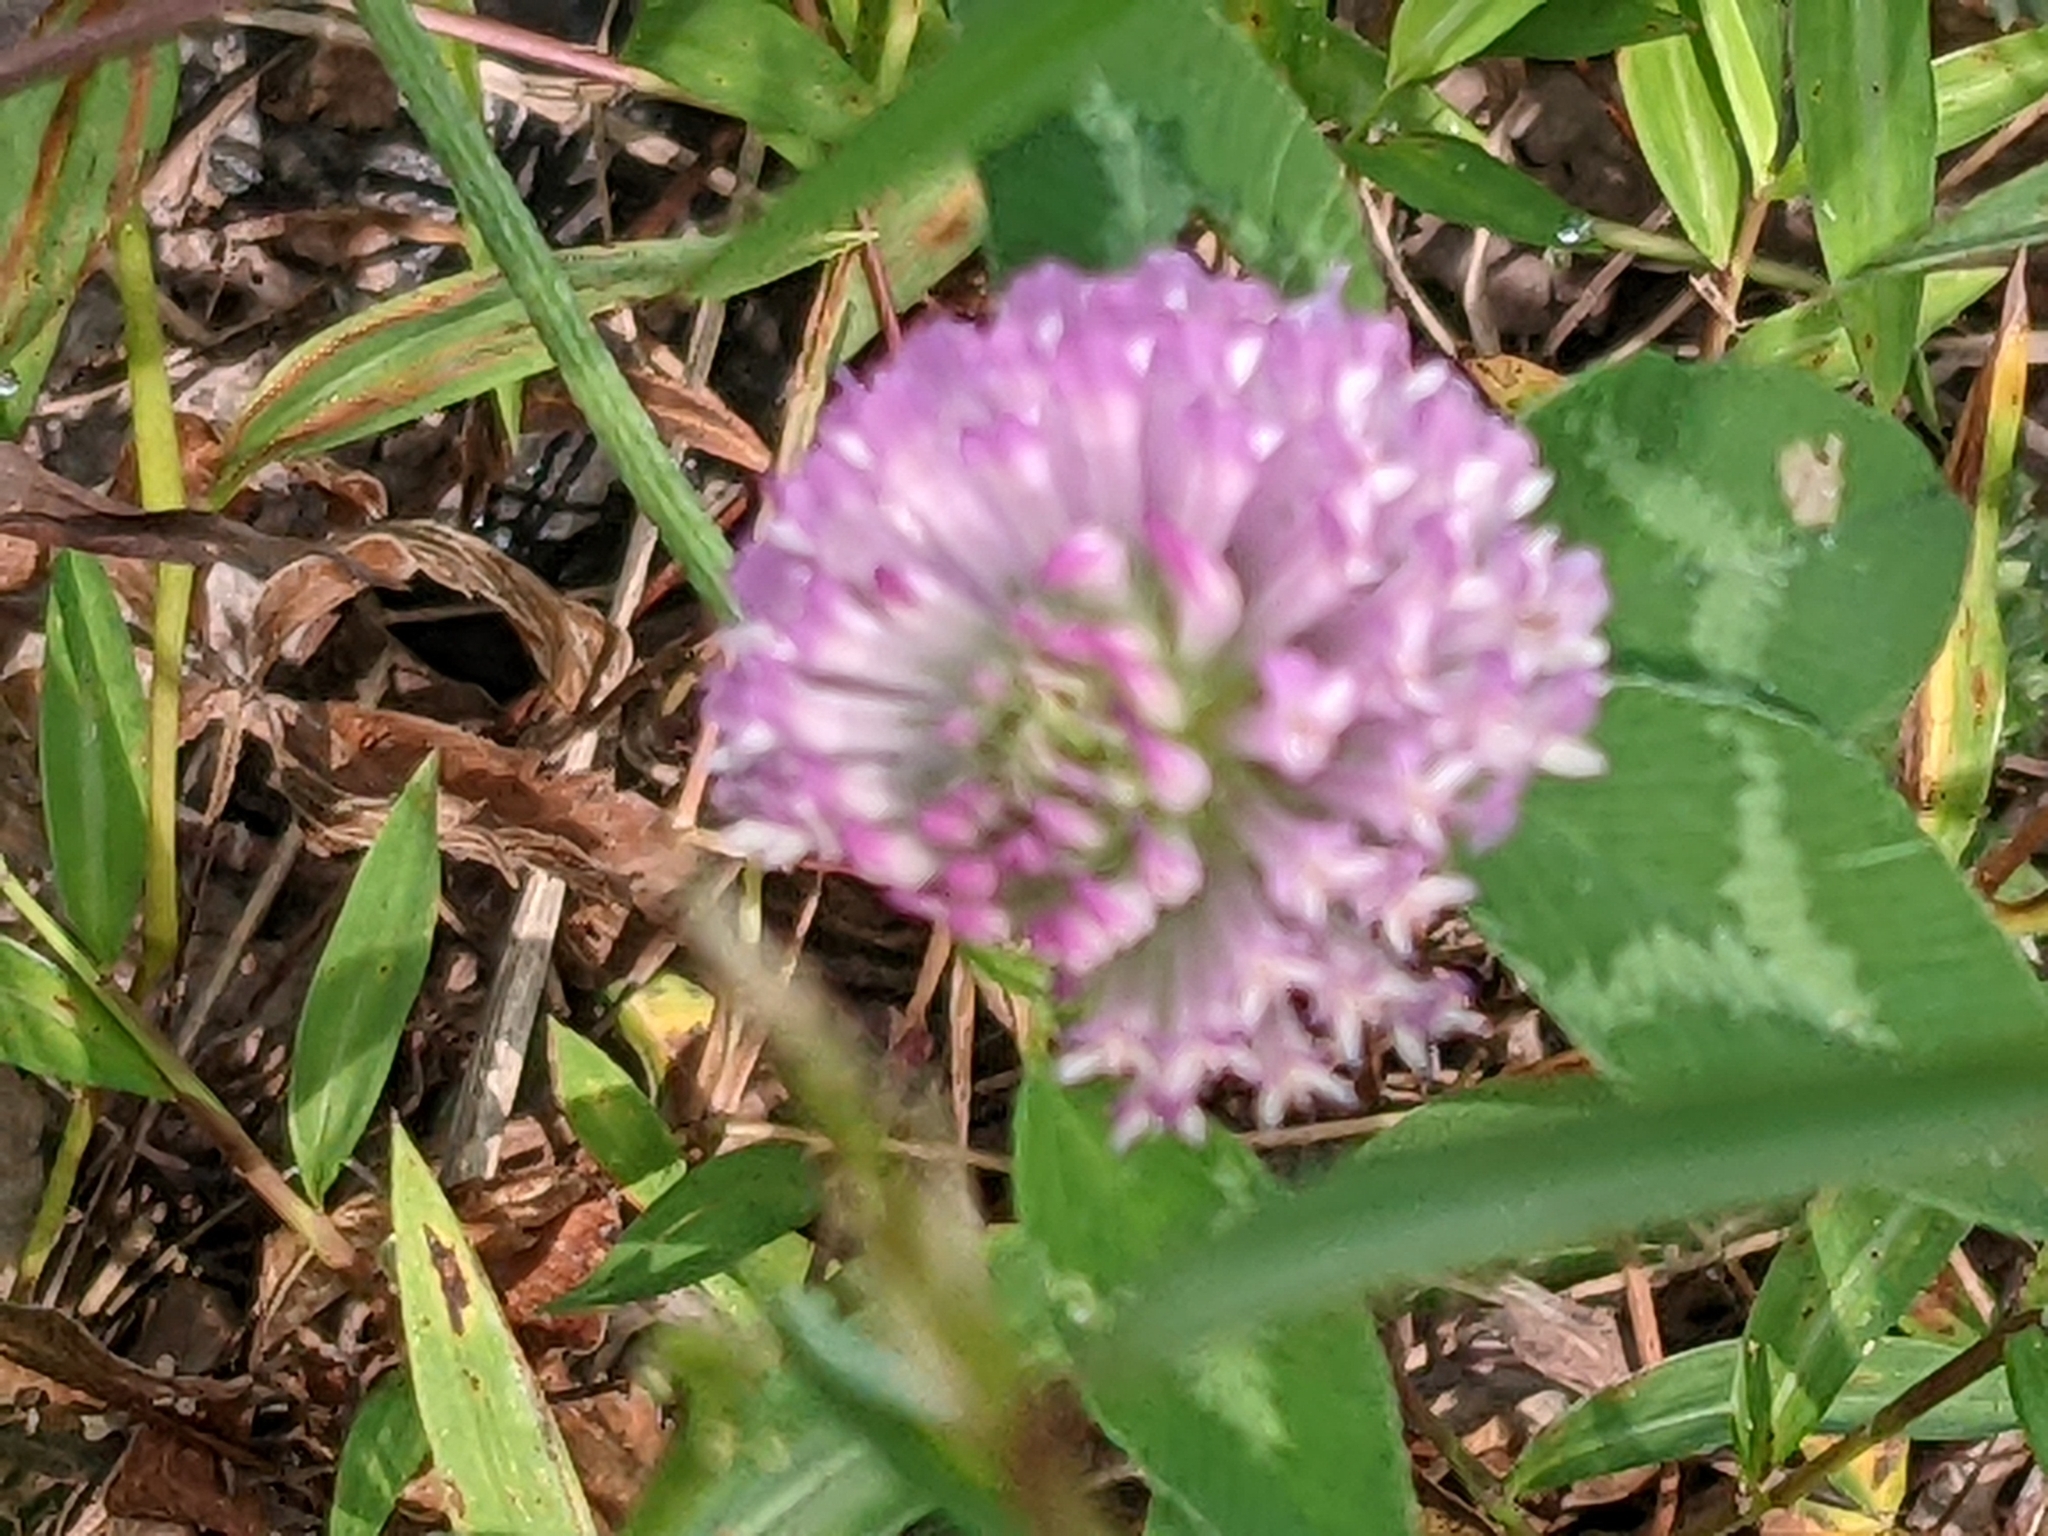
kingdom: Plantae
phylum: Tracheophyta
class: Magnoliopsida
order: Fabales
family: Fabaceae
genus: Trifolium
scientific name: Trifolium pratense
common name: Red clover
